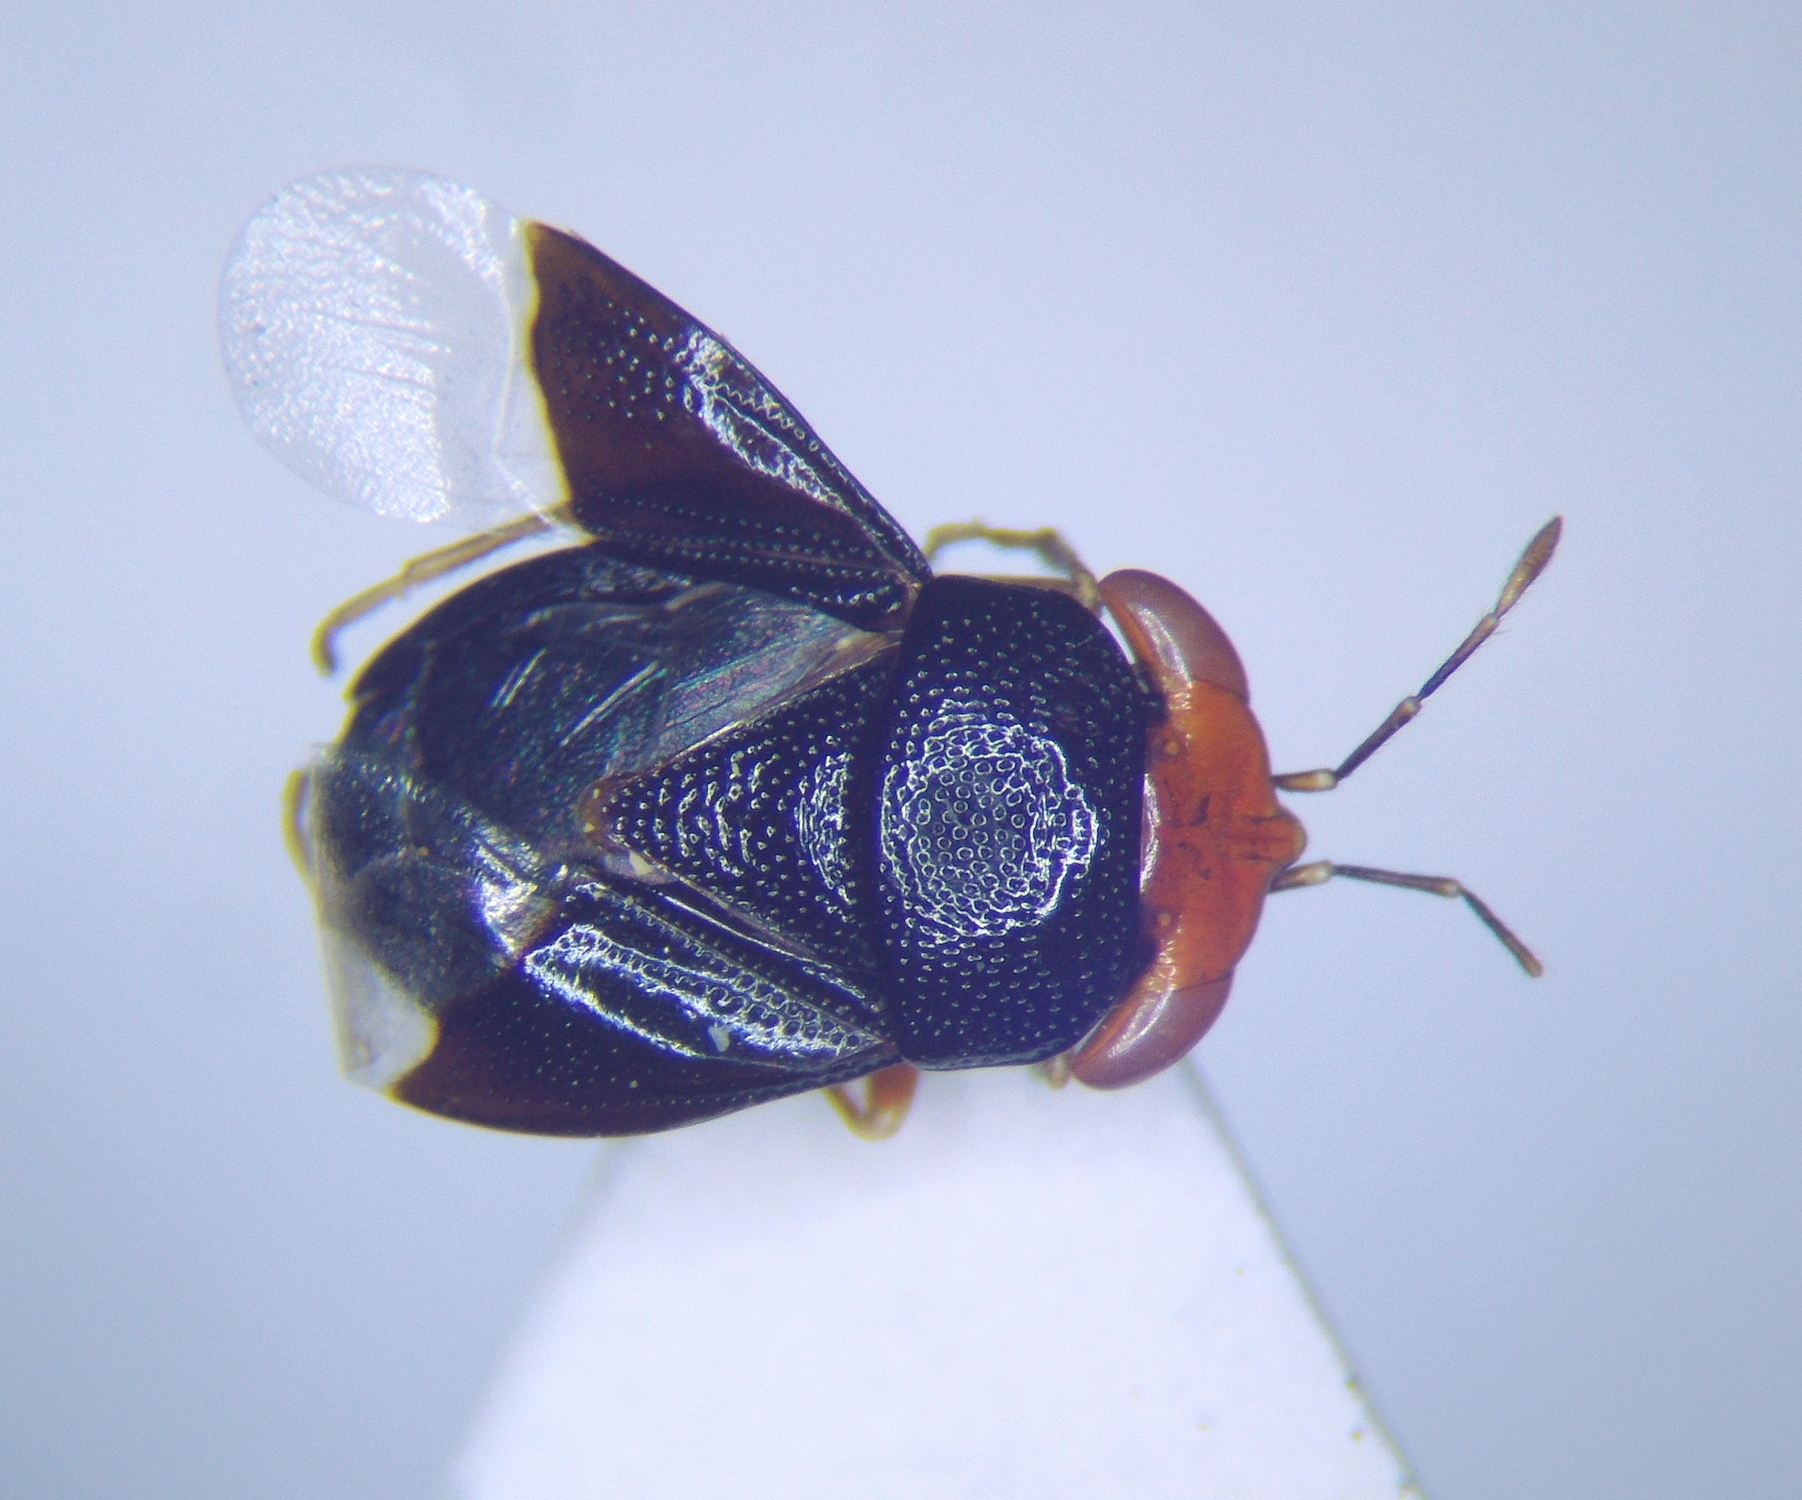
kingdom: Animalia
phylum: Arthropoda
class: Insecta
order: Hemiptera
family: Geocoridae
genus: Geocoris
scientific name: Geocoris erythrocephala
